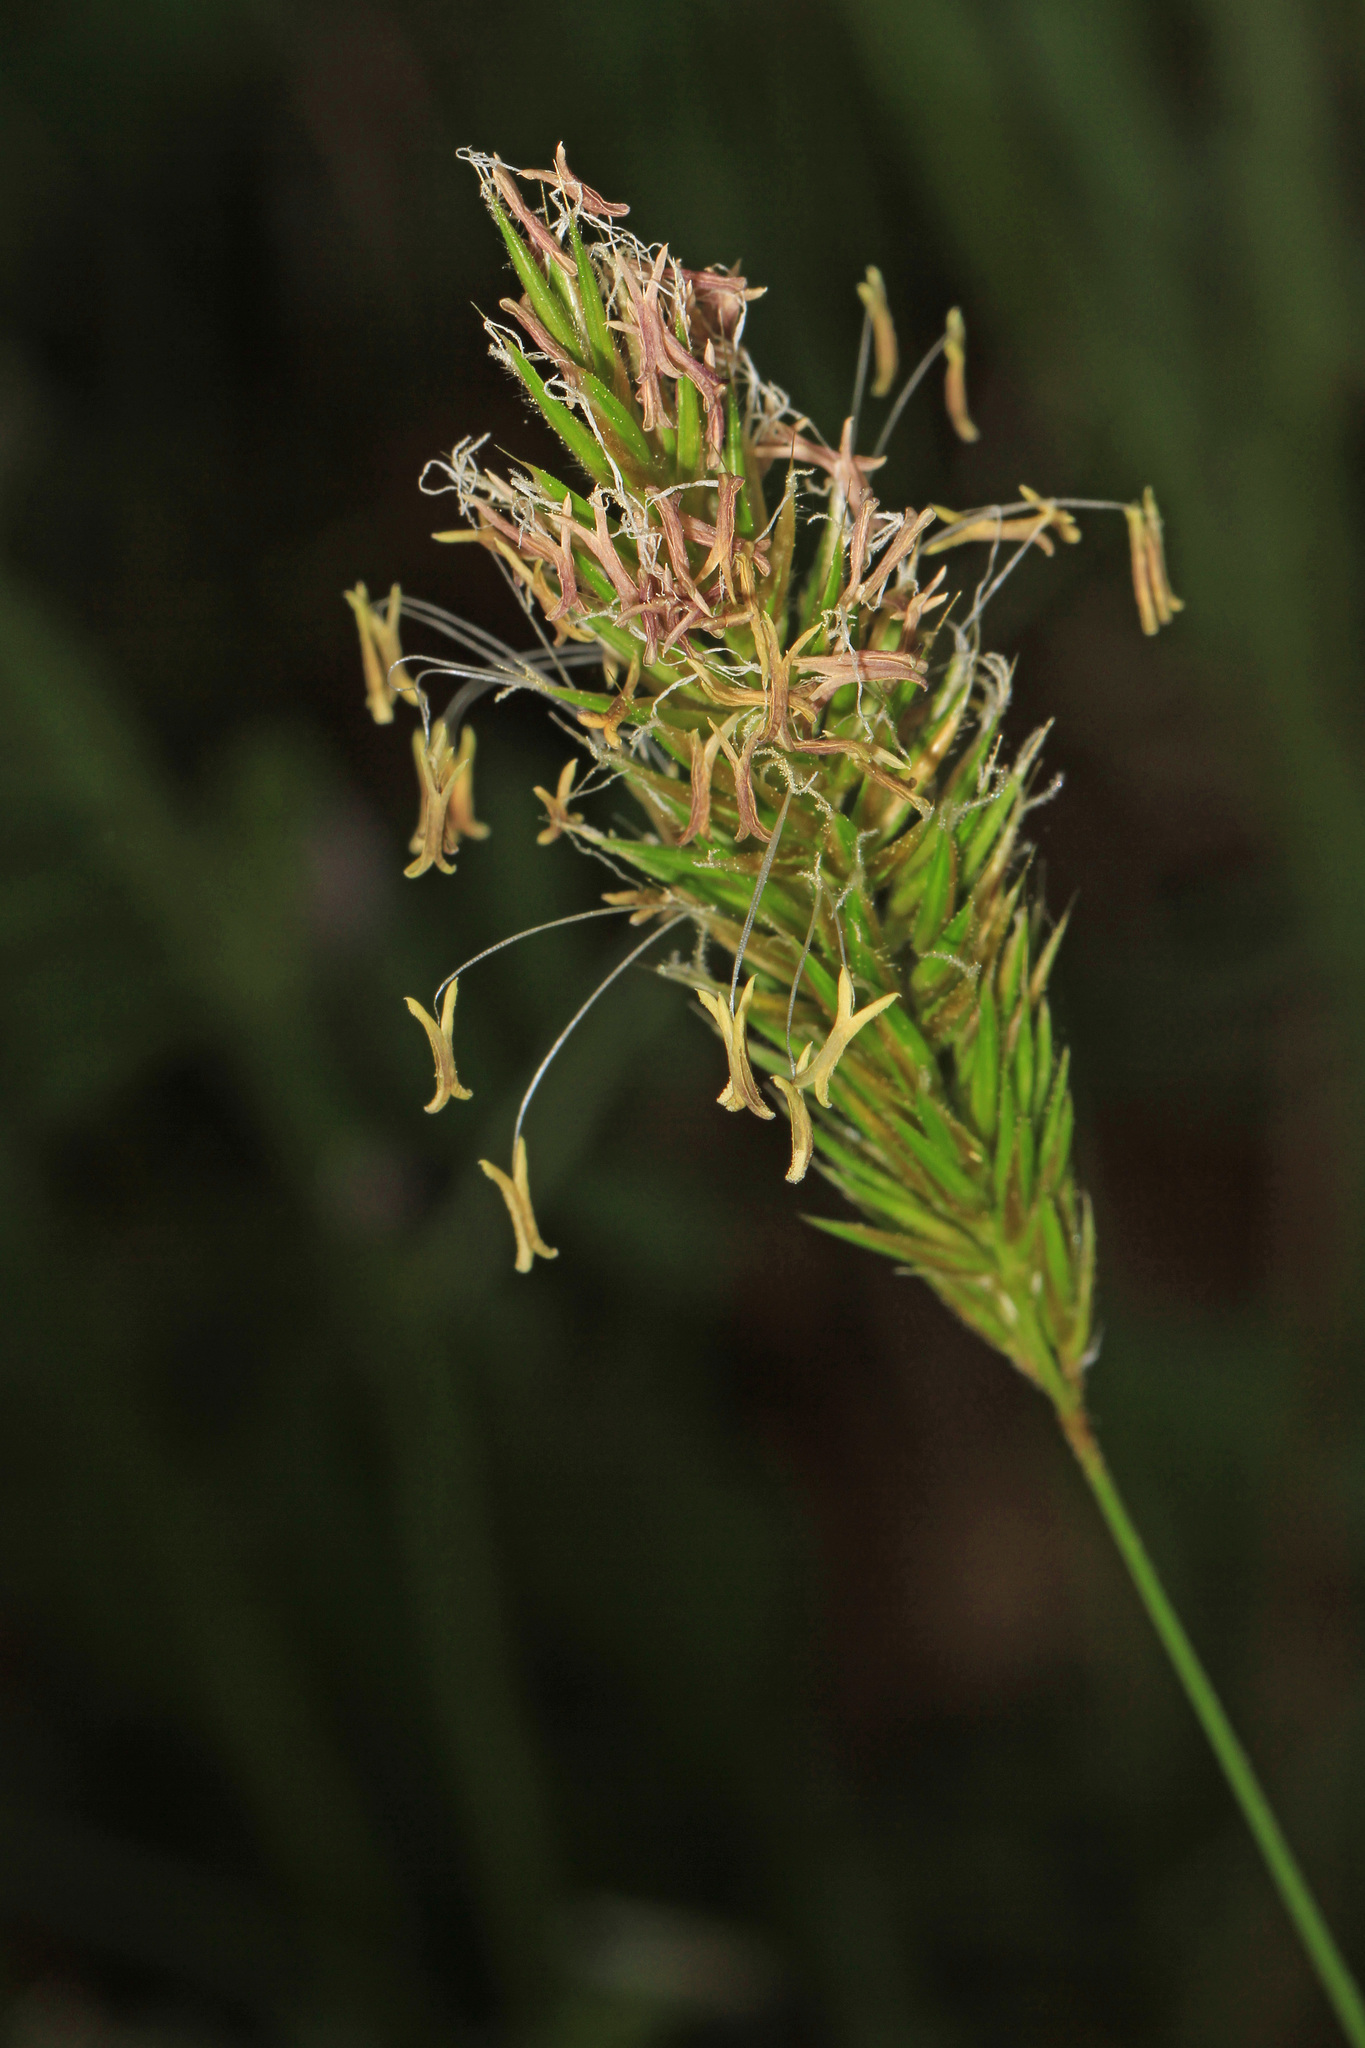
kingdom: Plantae
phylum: Tracheophyta
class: Liliopsida
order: Poales
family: Poaceae
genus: Anthoxanthum
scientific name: Anthoxanthum odoratum
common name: Sweet vernalgrass
